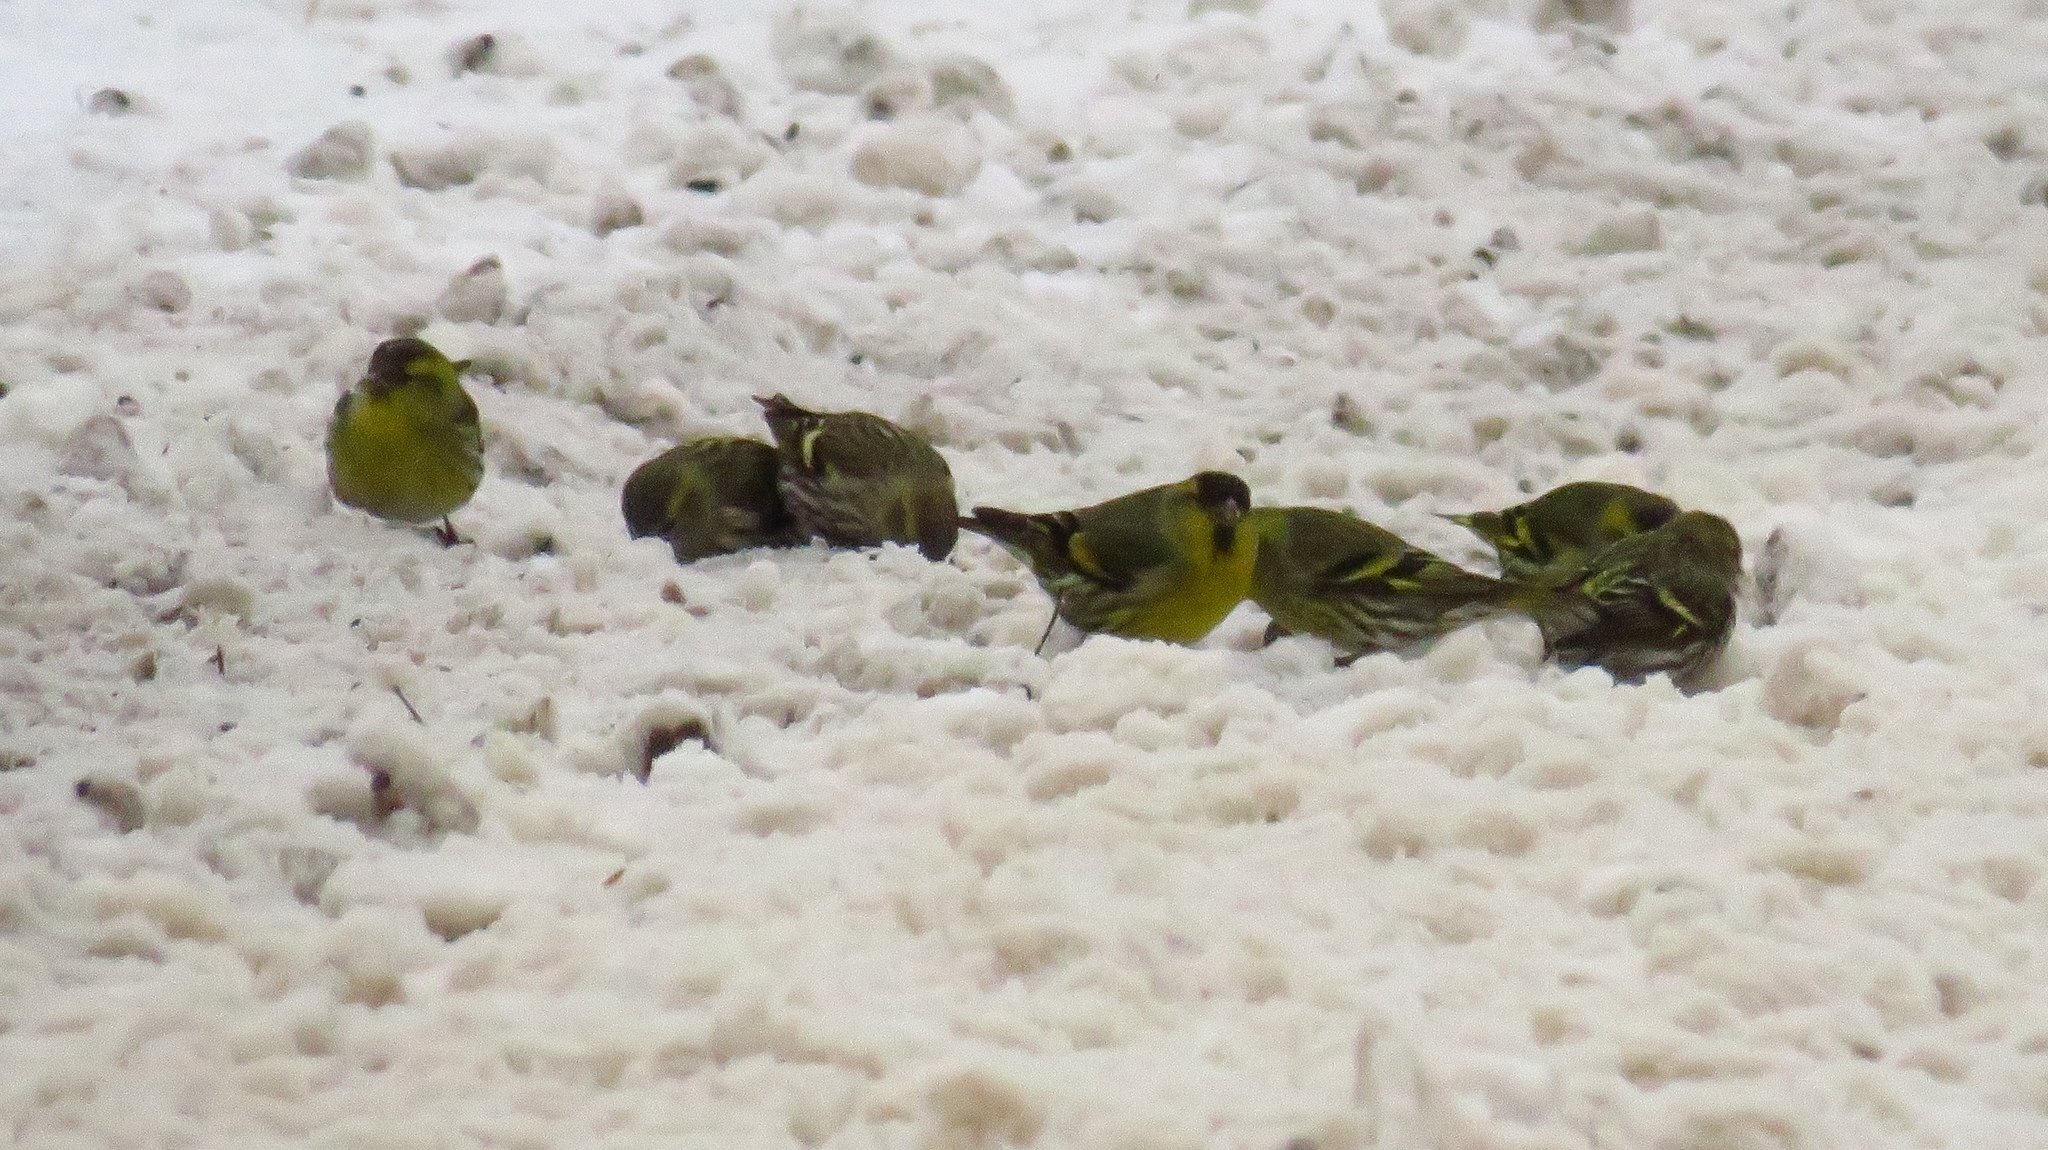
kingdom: Animalia
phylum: Chordata
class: Aves
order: Passeriformes
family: Fringillidae
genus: Spinus
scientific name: Spinus spinus
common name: Eurasian siskin
